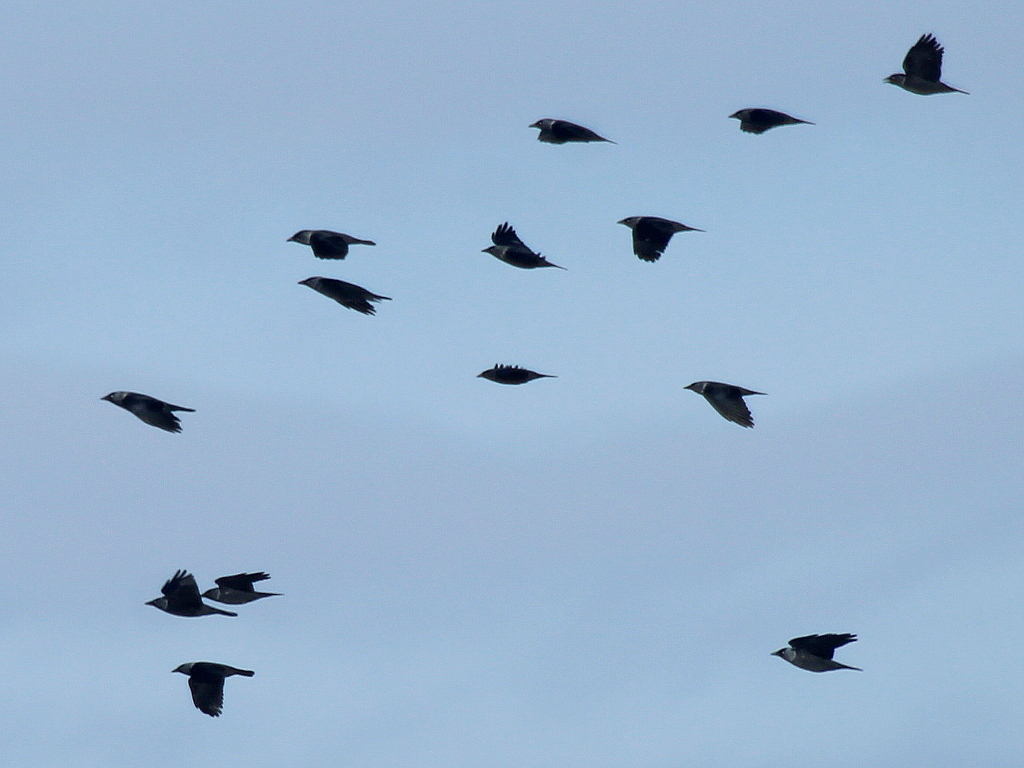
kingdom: Animalia
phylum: Chordata
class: Aves
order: Passeriformes
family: Corvidae
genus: Coloeus
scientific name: Coloeus monedula
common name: Western jackdaw
